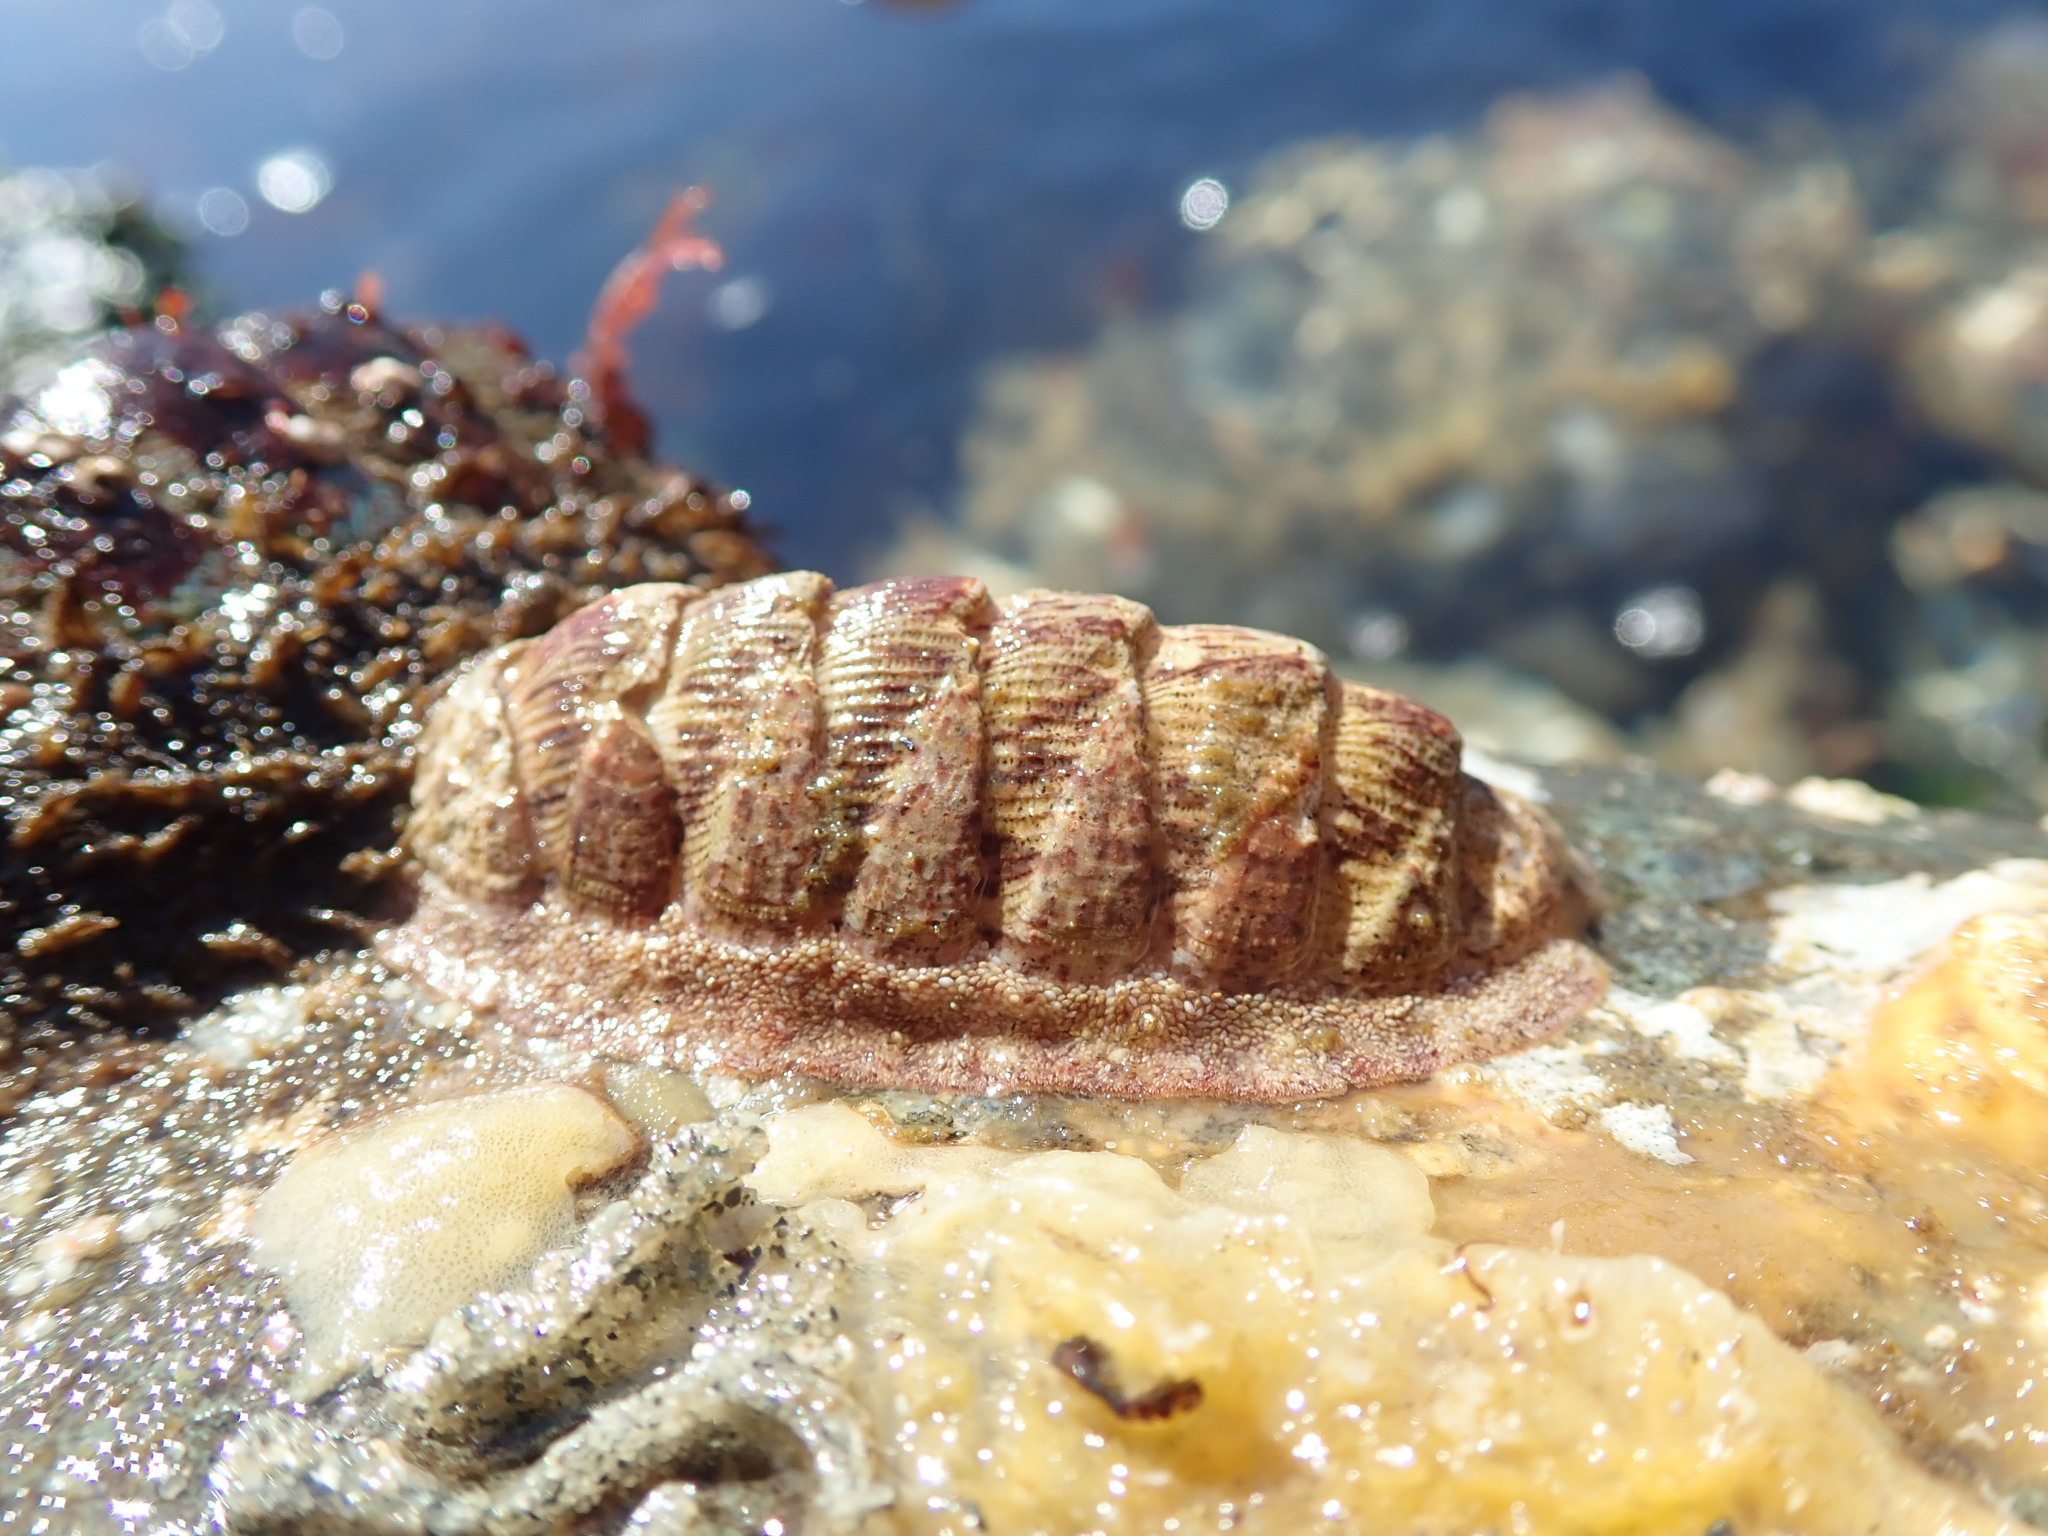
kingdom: Animalia
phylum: Mollusca
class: Polyplacophora
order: Chitonida
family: Ischnochitonidae
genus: Lepidozona
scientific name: Lepidozona mertensii
